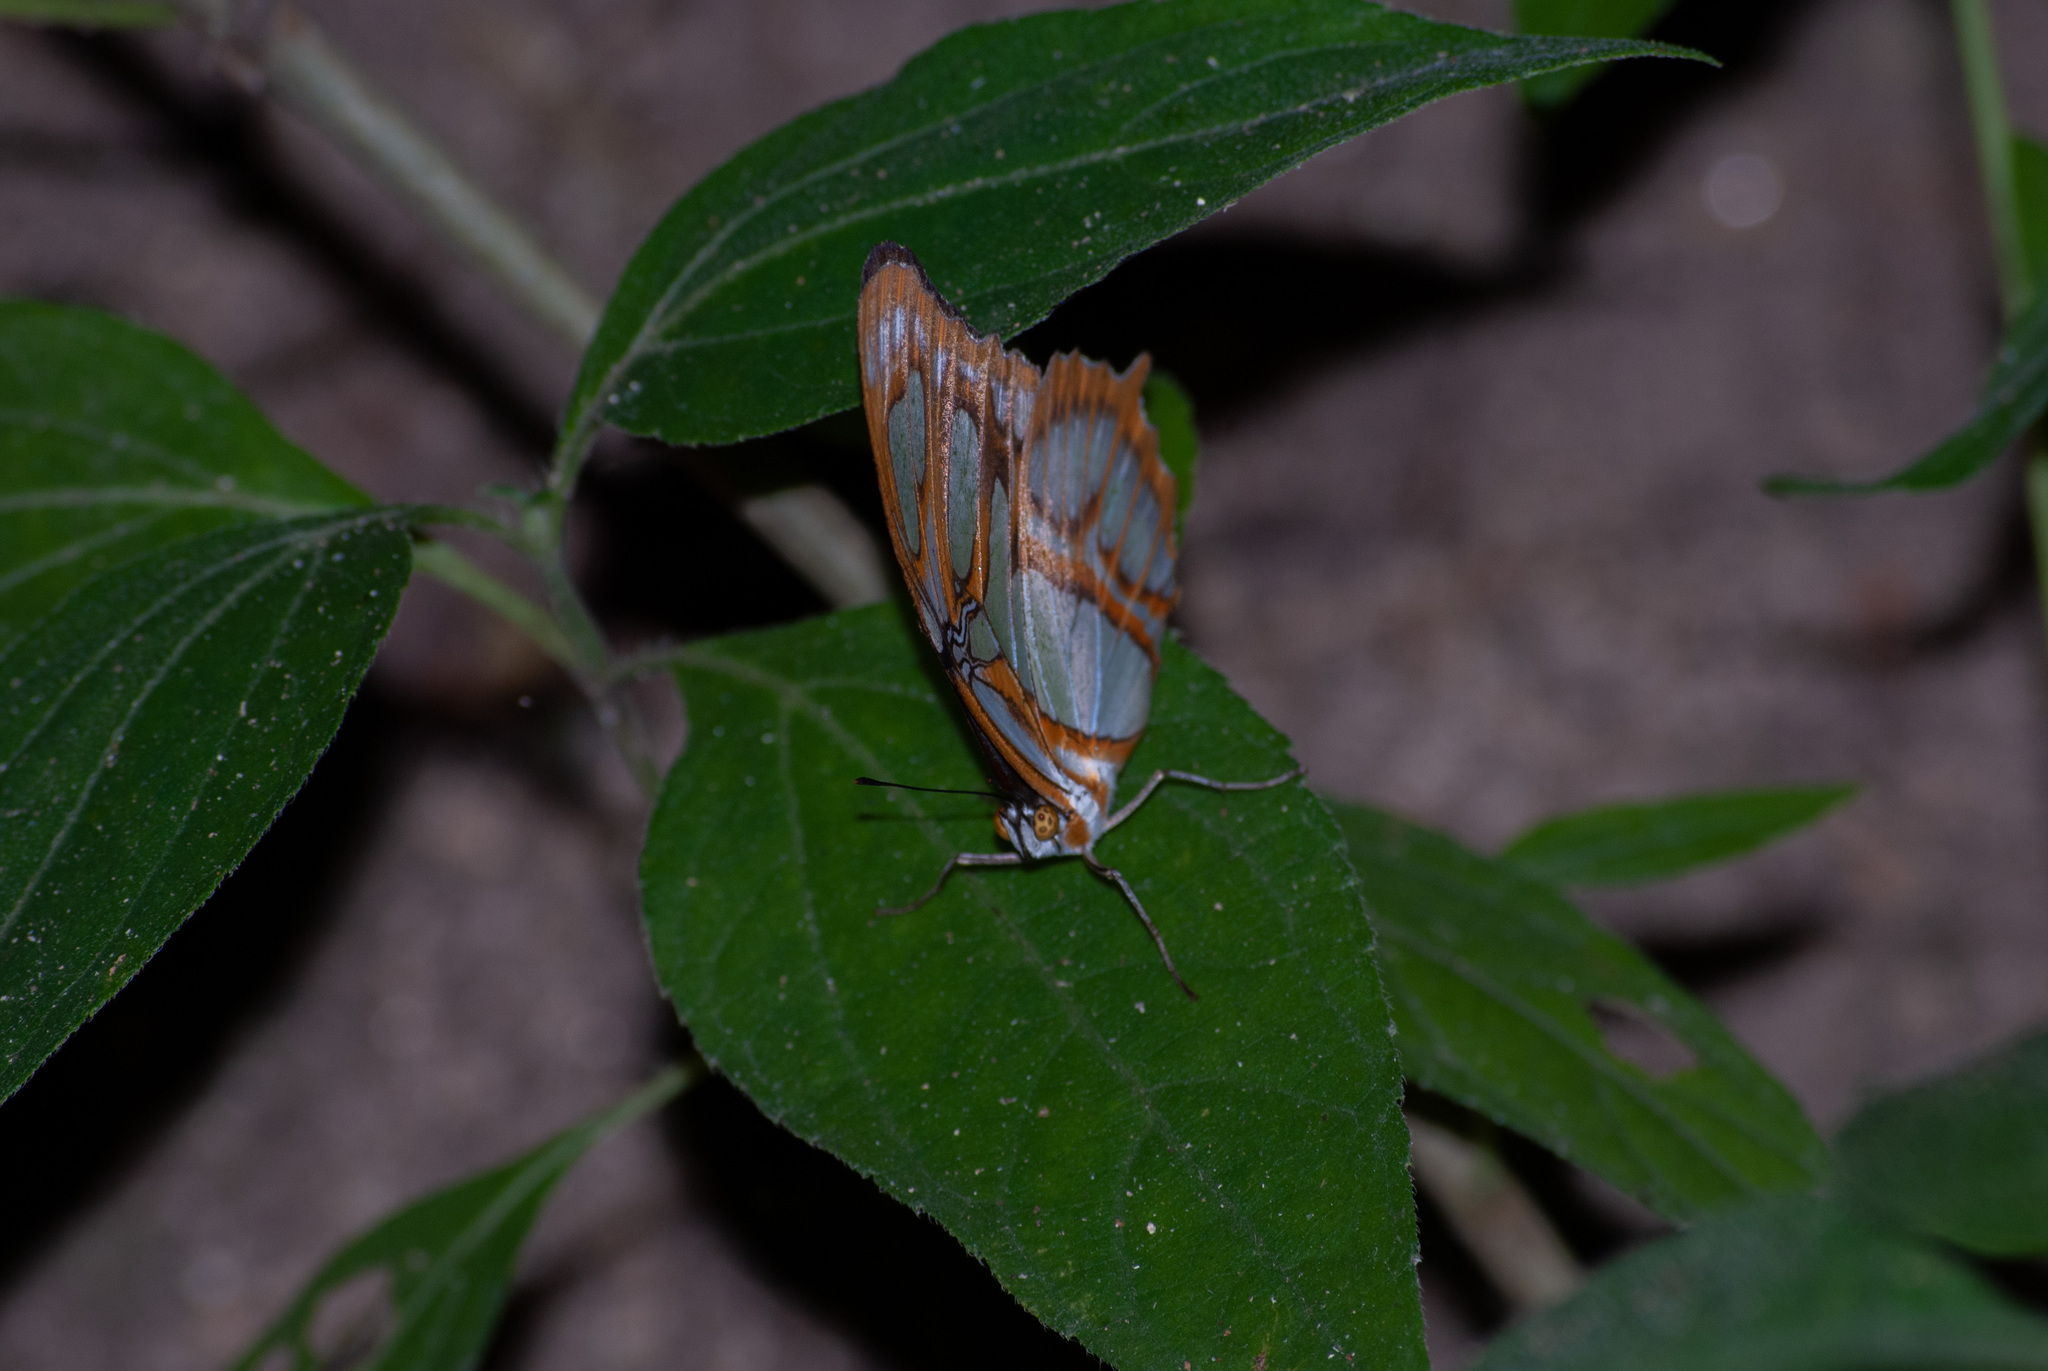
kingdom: Animalia
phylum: Arthropoda
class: Insecta
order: Lepidoptera
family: Nymphalidae
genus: Siproeta
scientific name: Siproeta stelenes
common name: Malachite
